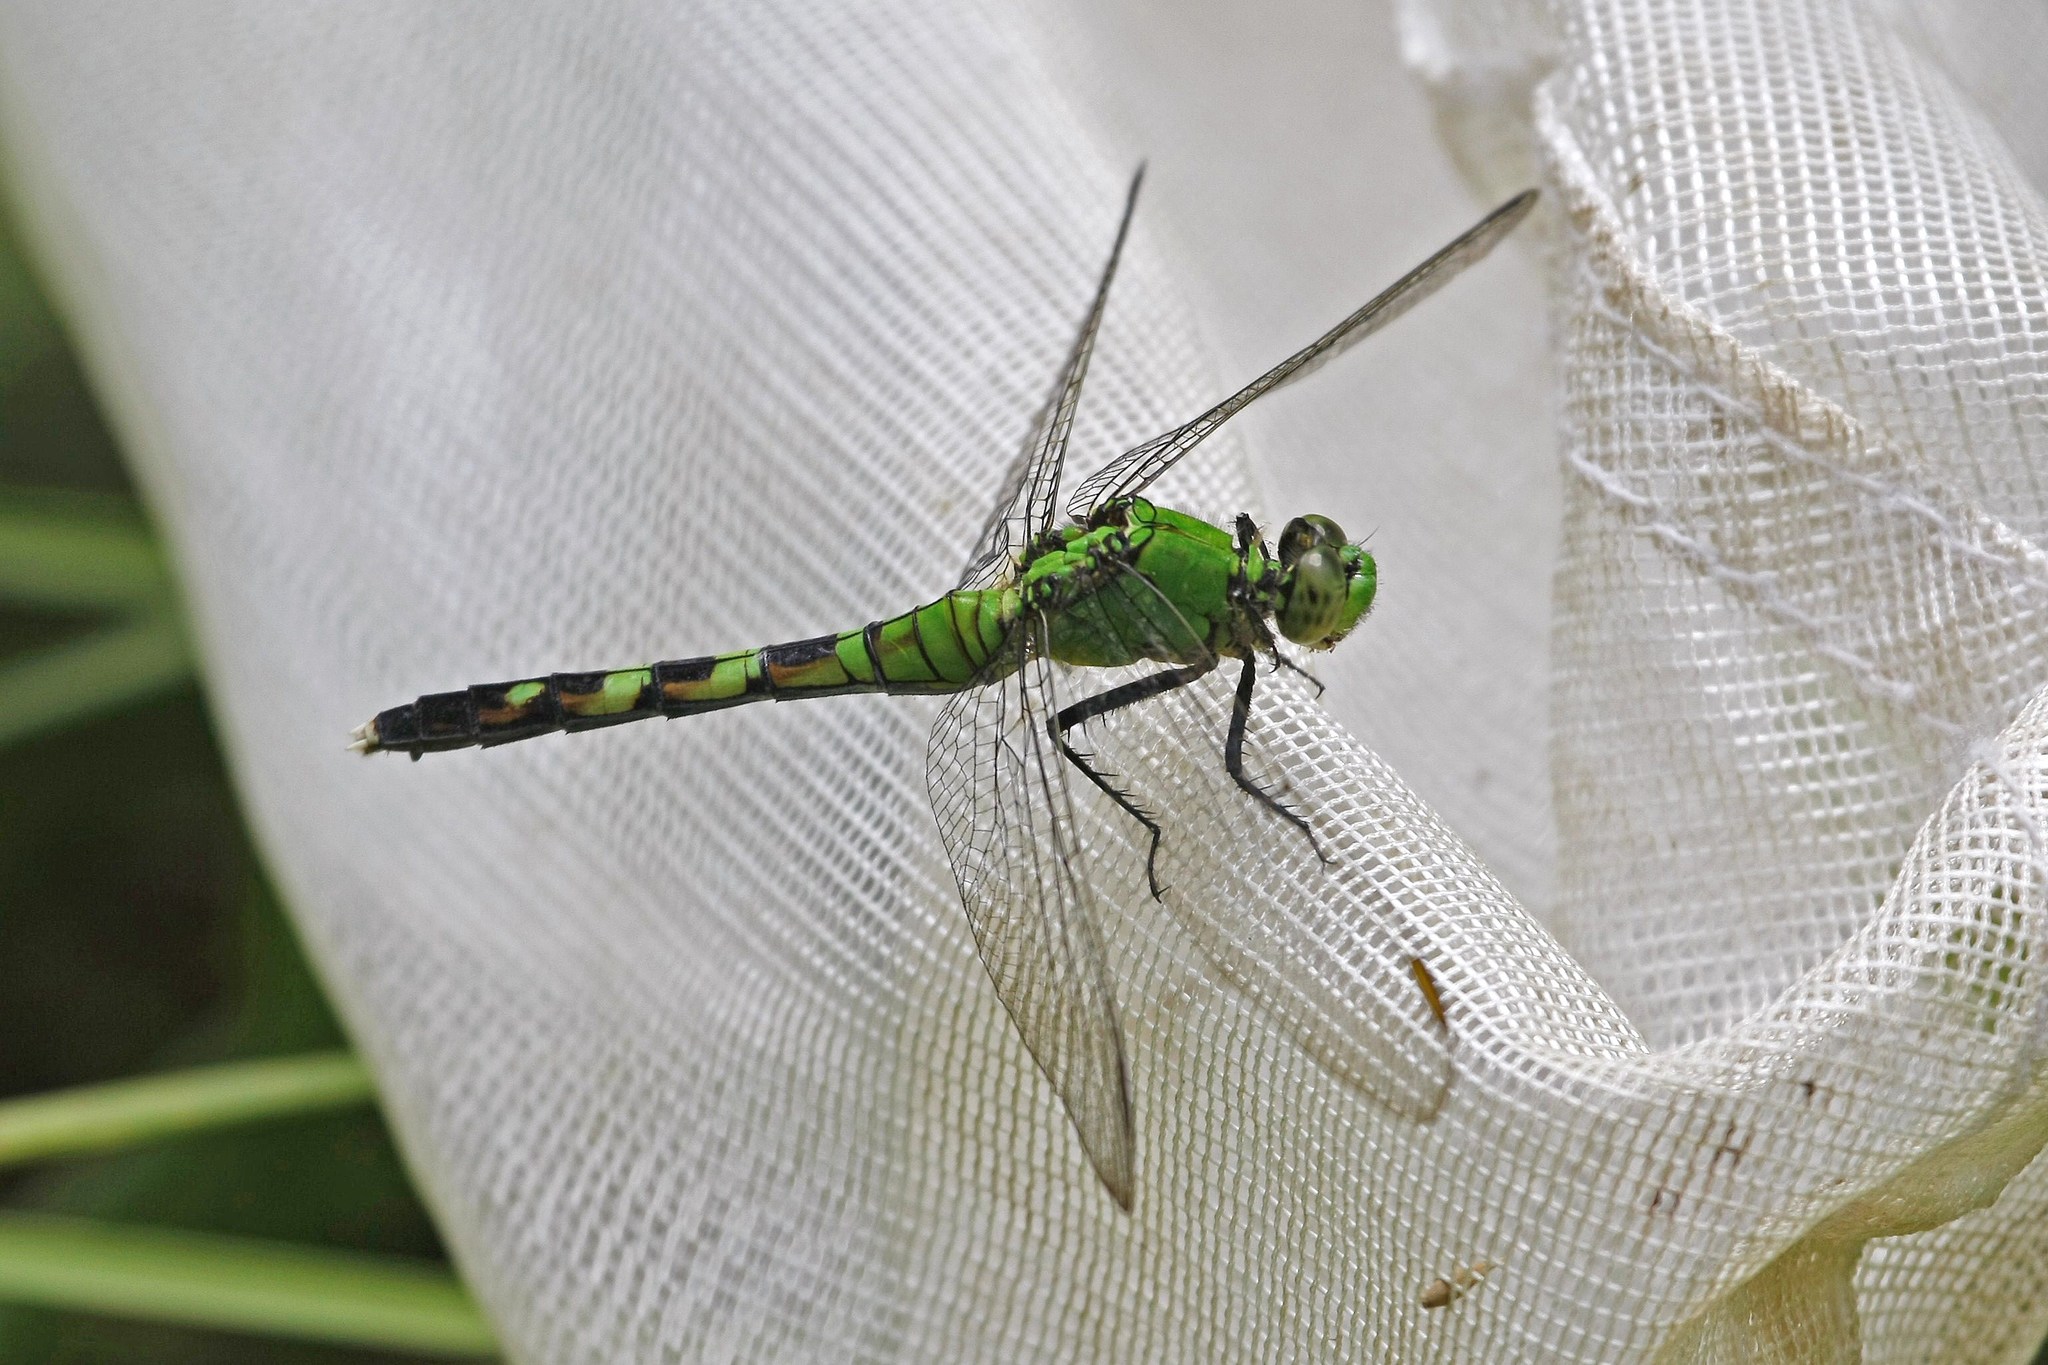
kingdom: Animalia
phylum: Arthropoda
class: Insecta
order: Odonata
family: Libellulidae
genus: Erythemis
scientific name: Erythemis simplicicollis
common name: Eastern pondhawk
